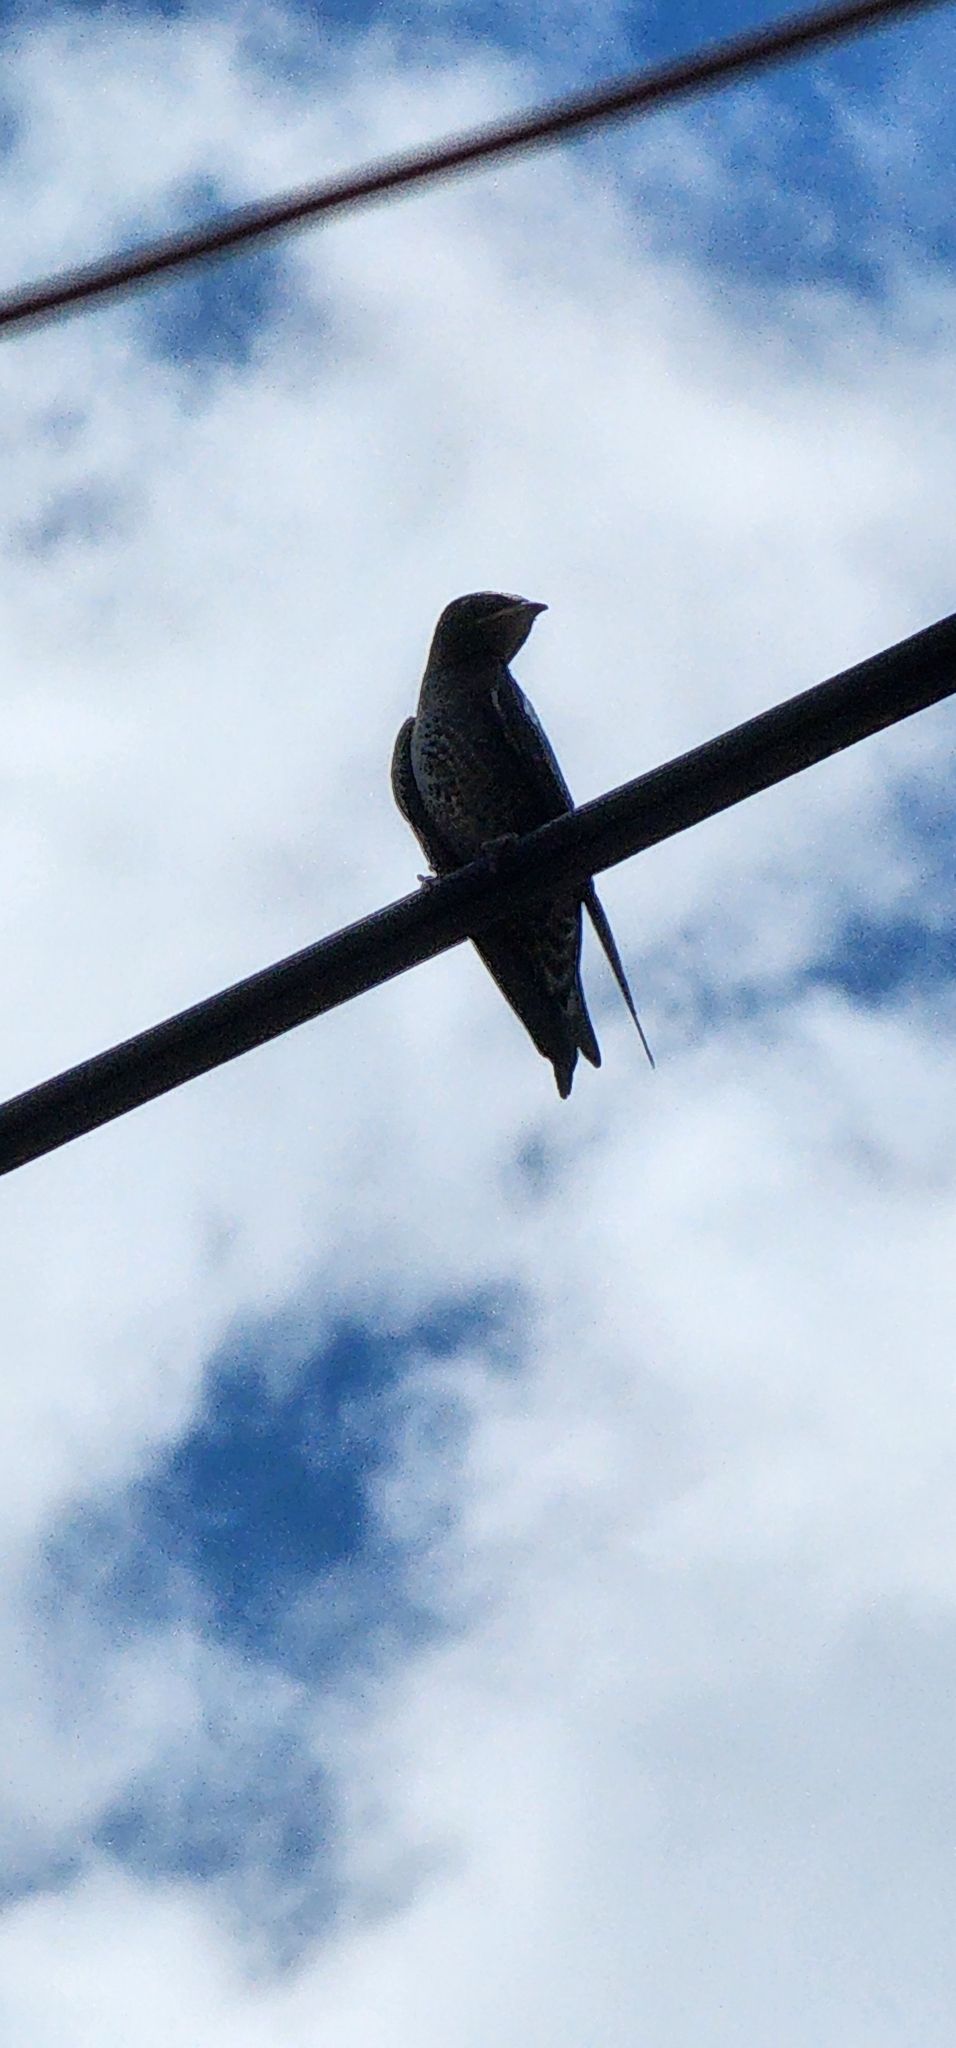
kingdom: Animalia
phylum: Chordata
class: Aves
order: Passeriformes
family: Hirundinidae
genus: Progne
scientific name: Progne elegans
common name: Southern martin
